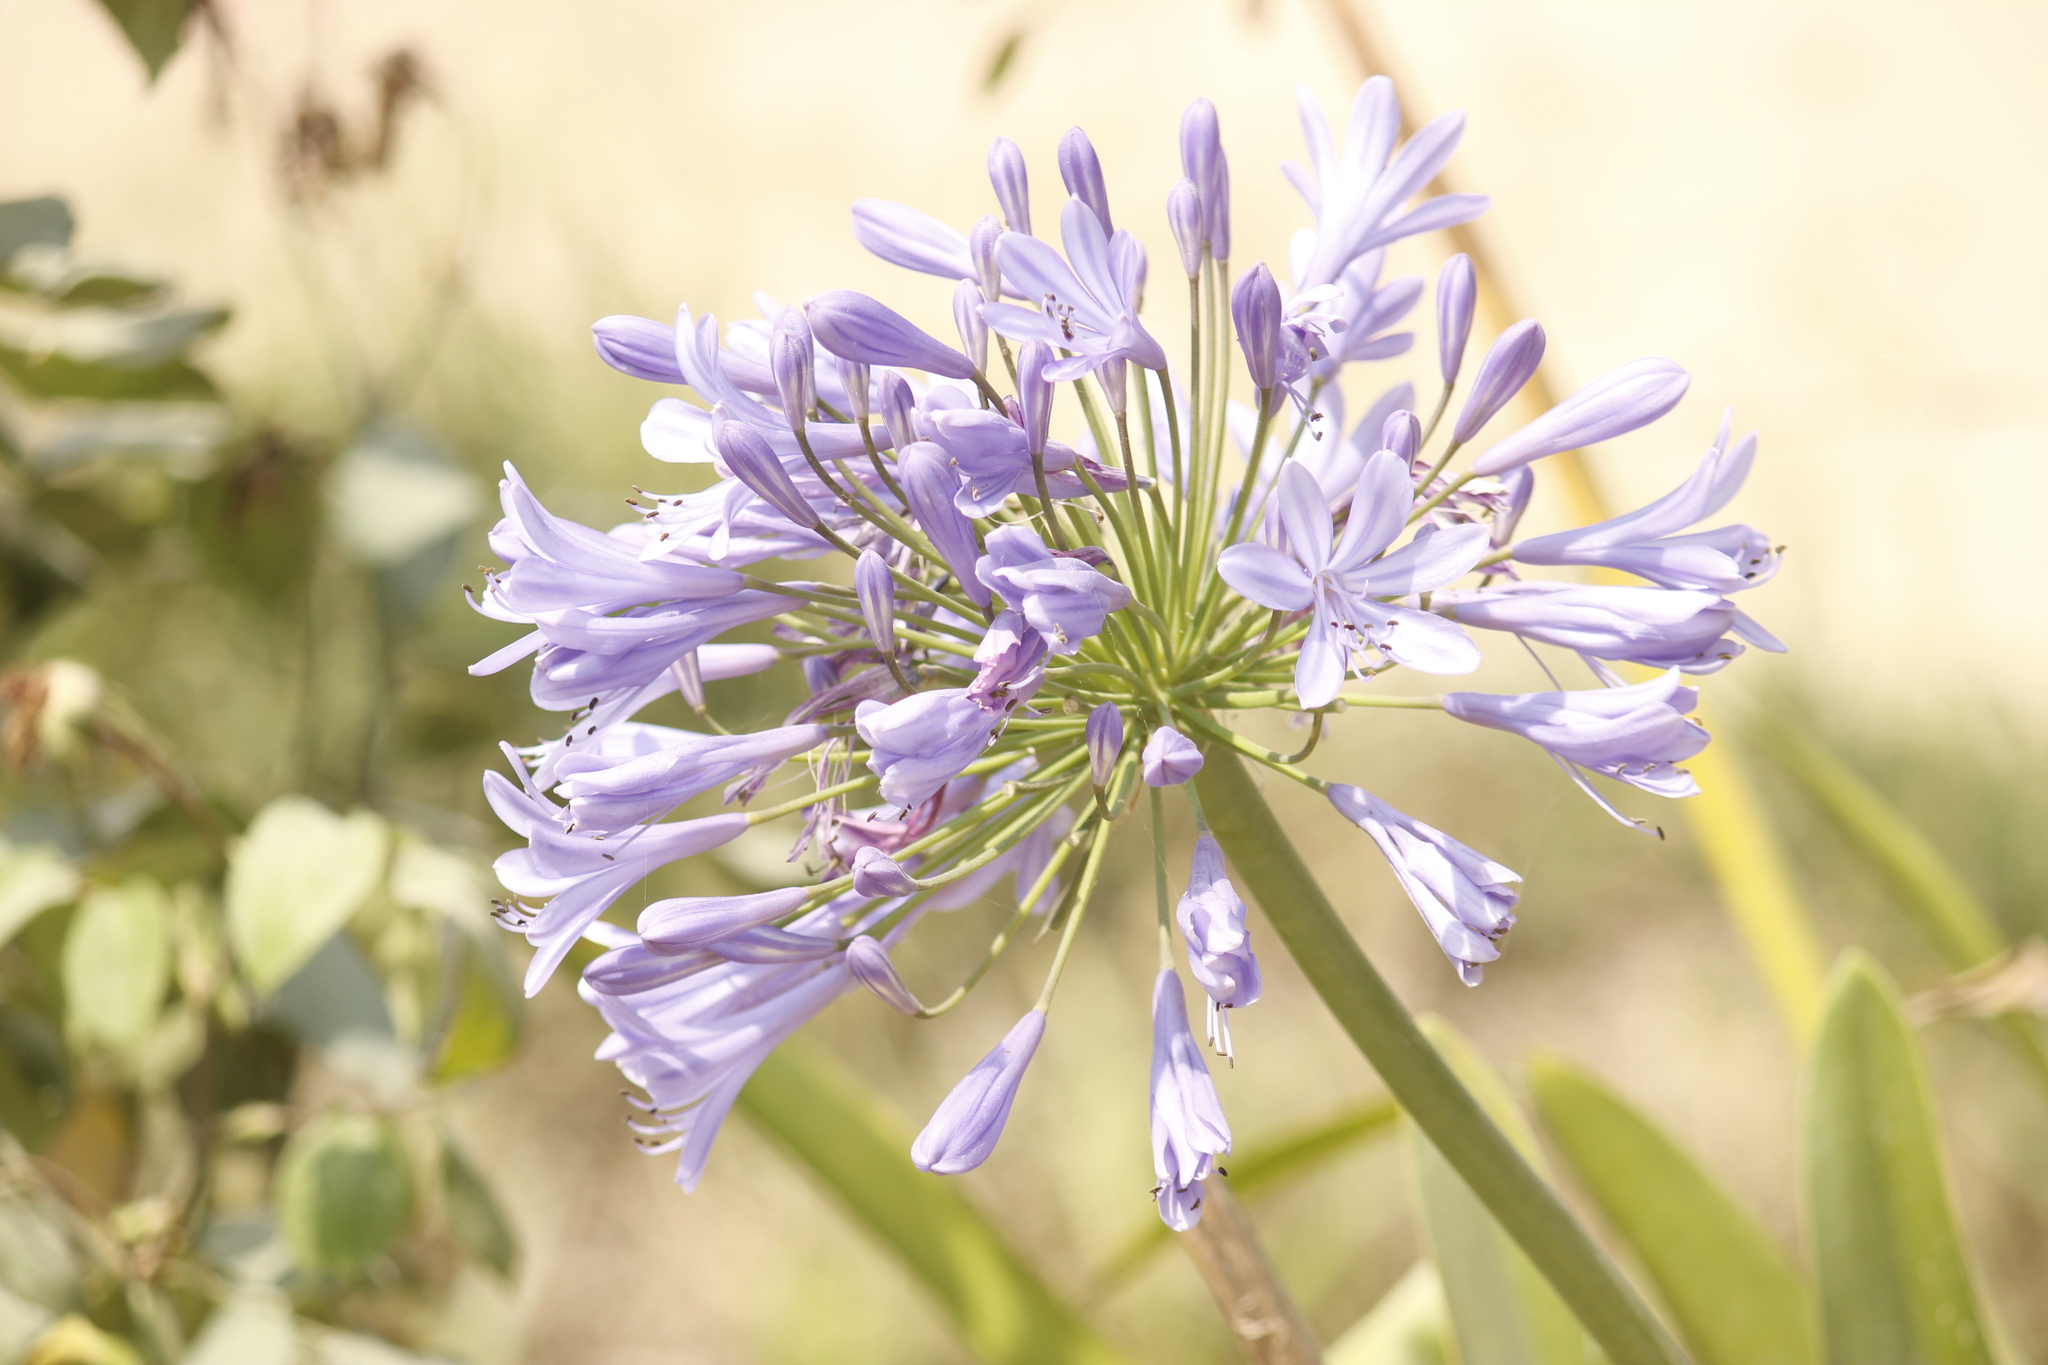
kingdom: Plantae
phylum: Tracheophyta
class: Liliopsida
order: Asparagales
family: Amaryllidaceae
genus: Agapanthus
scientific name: Agapanthus africanus
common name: Lily-of-the-nile
